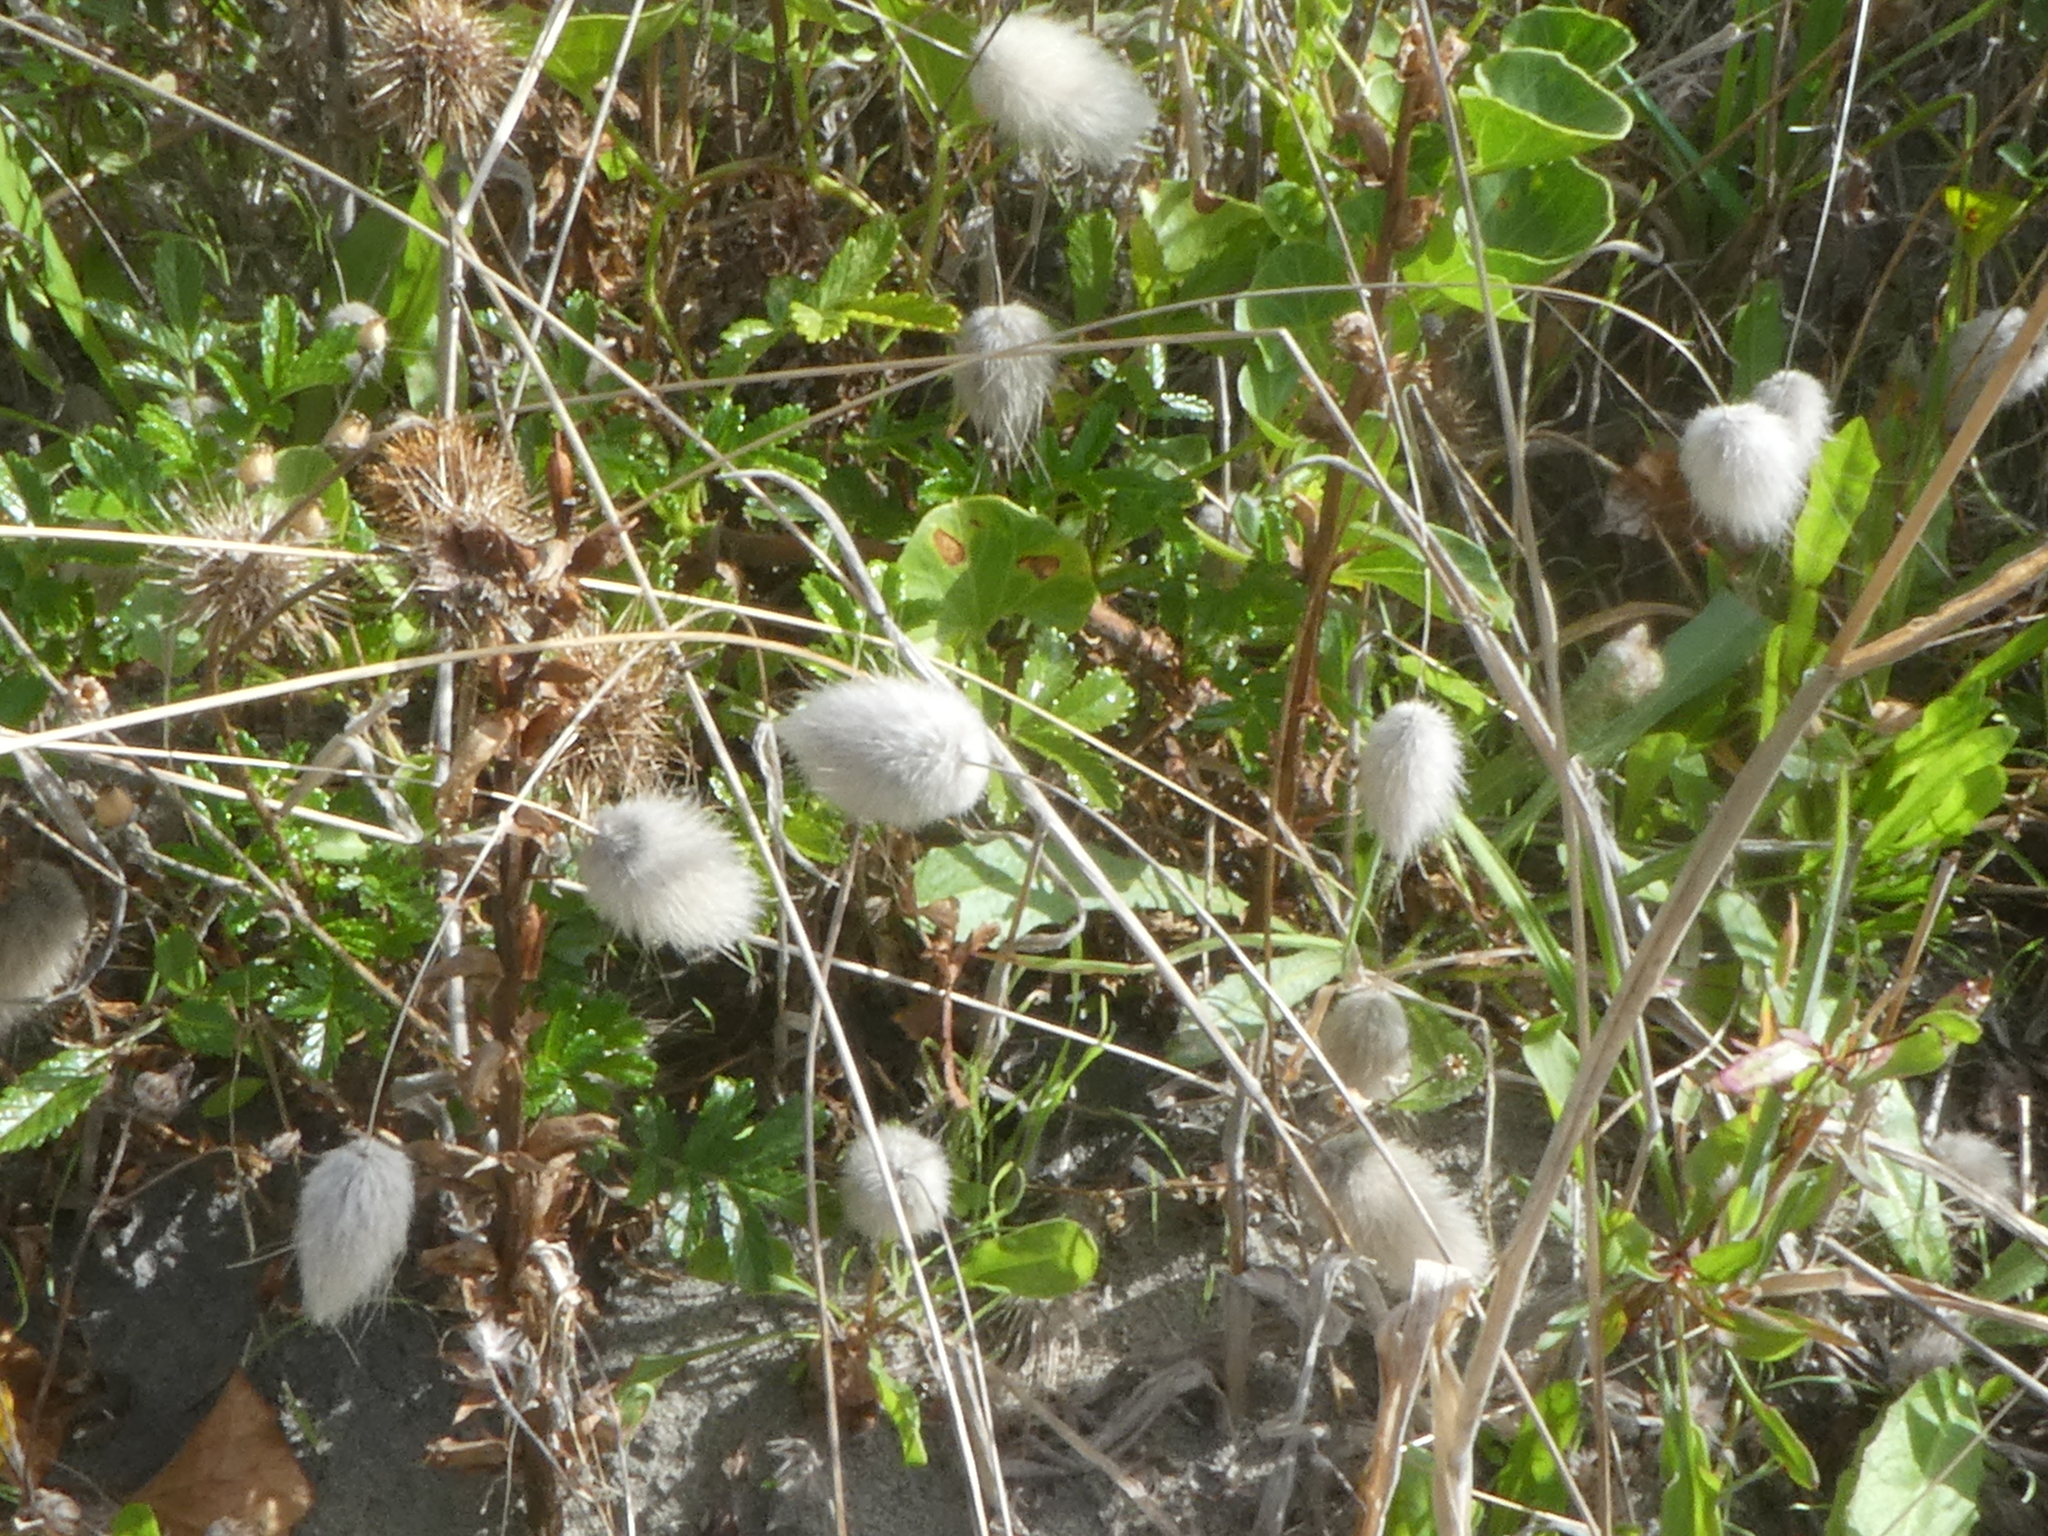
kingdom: Plantae
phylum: Tracheophyta
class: Liliopsida
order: Poales
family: Poaceae
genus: Lagurus
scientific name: Lagurus ovatus
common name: Hare's-tail
